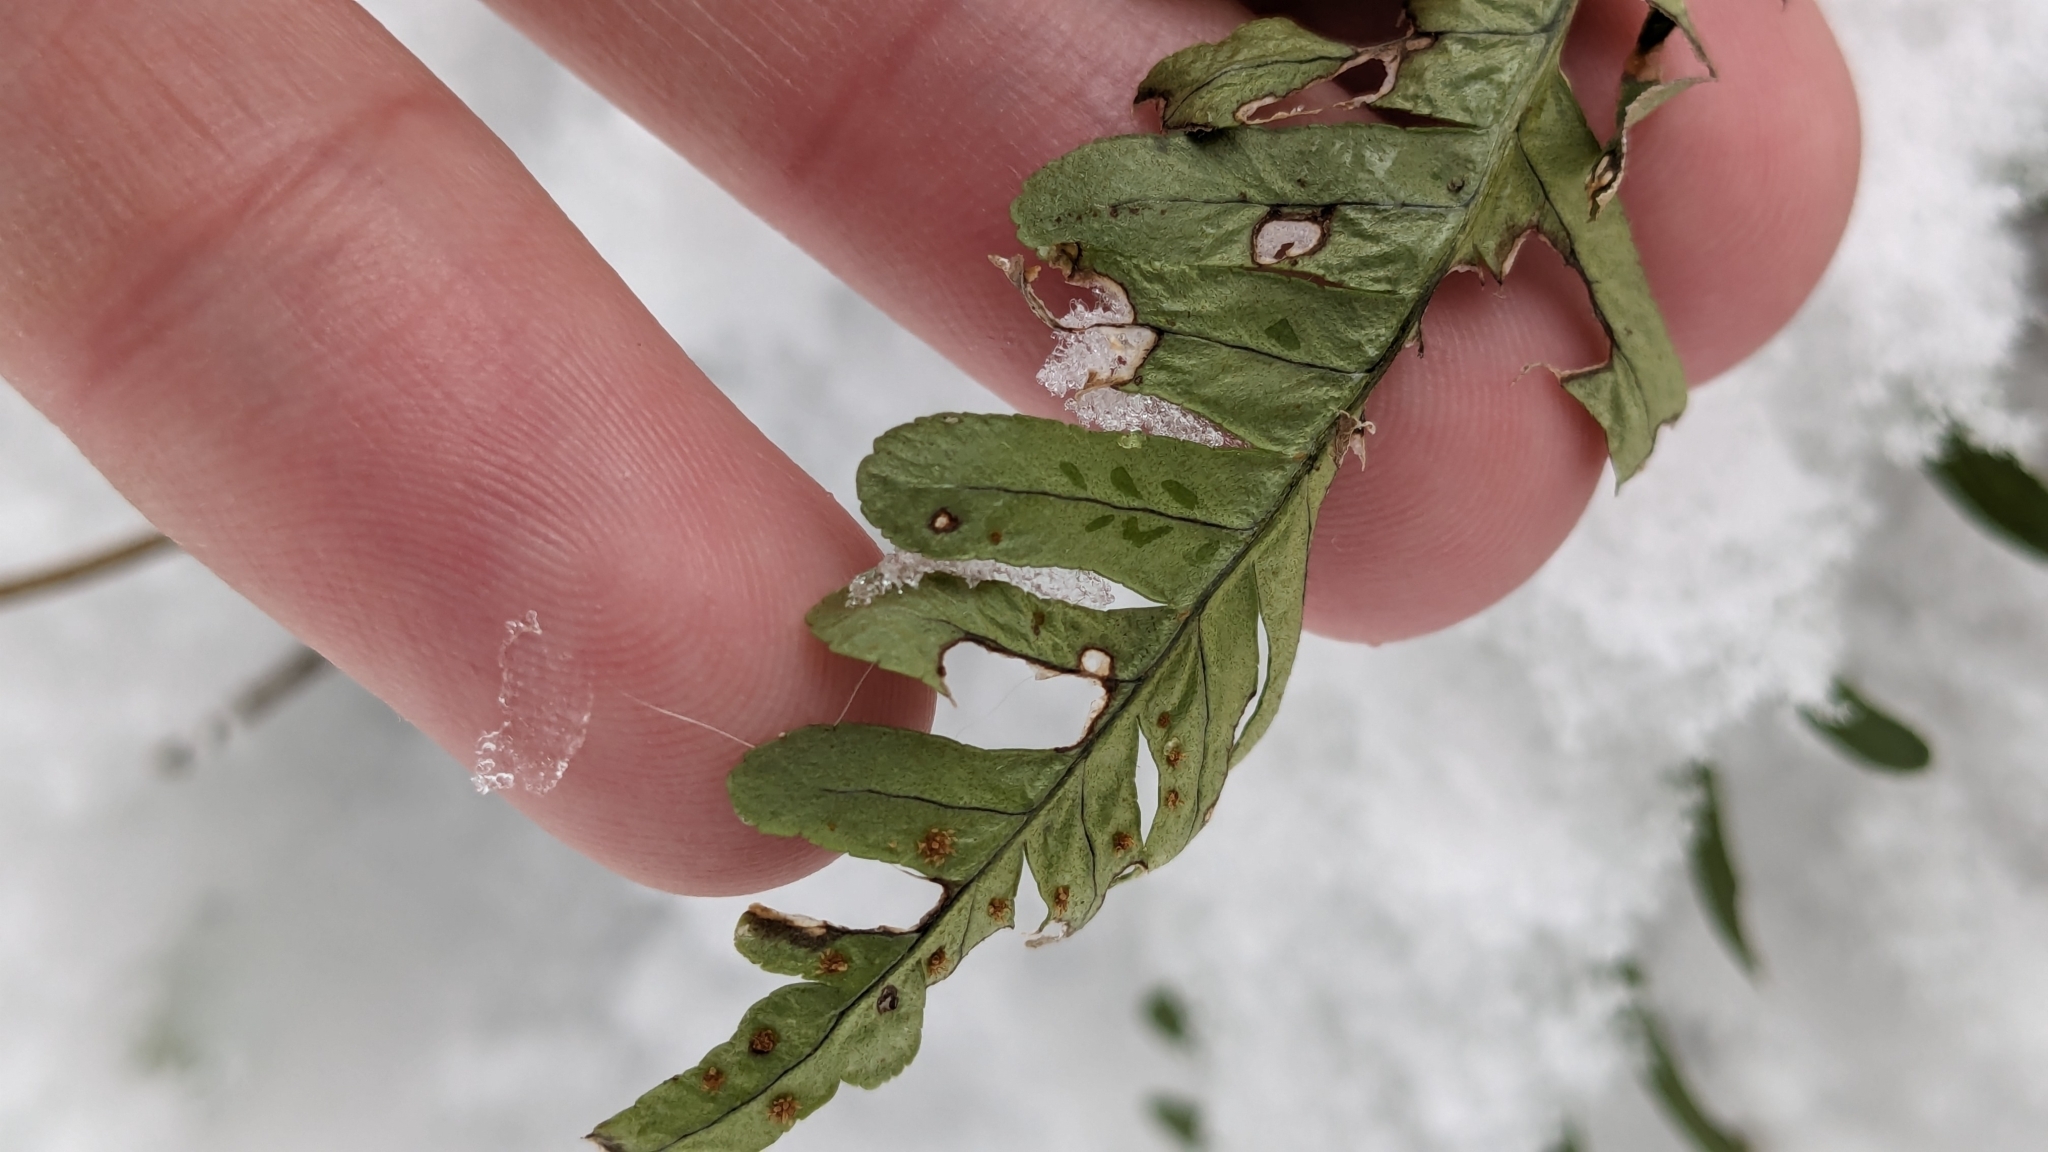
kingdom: Plantae
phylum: Tracheophyta
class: Polypodiopsida
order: Polypodiales
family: Polypodiaceae
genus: Polypodium
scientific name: Polypodium virginianum
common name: American wall fern
